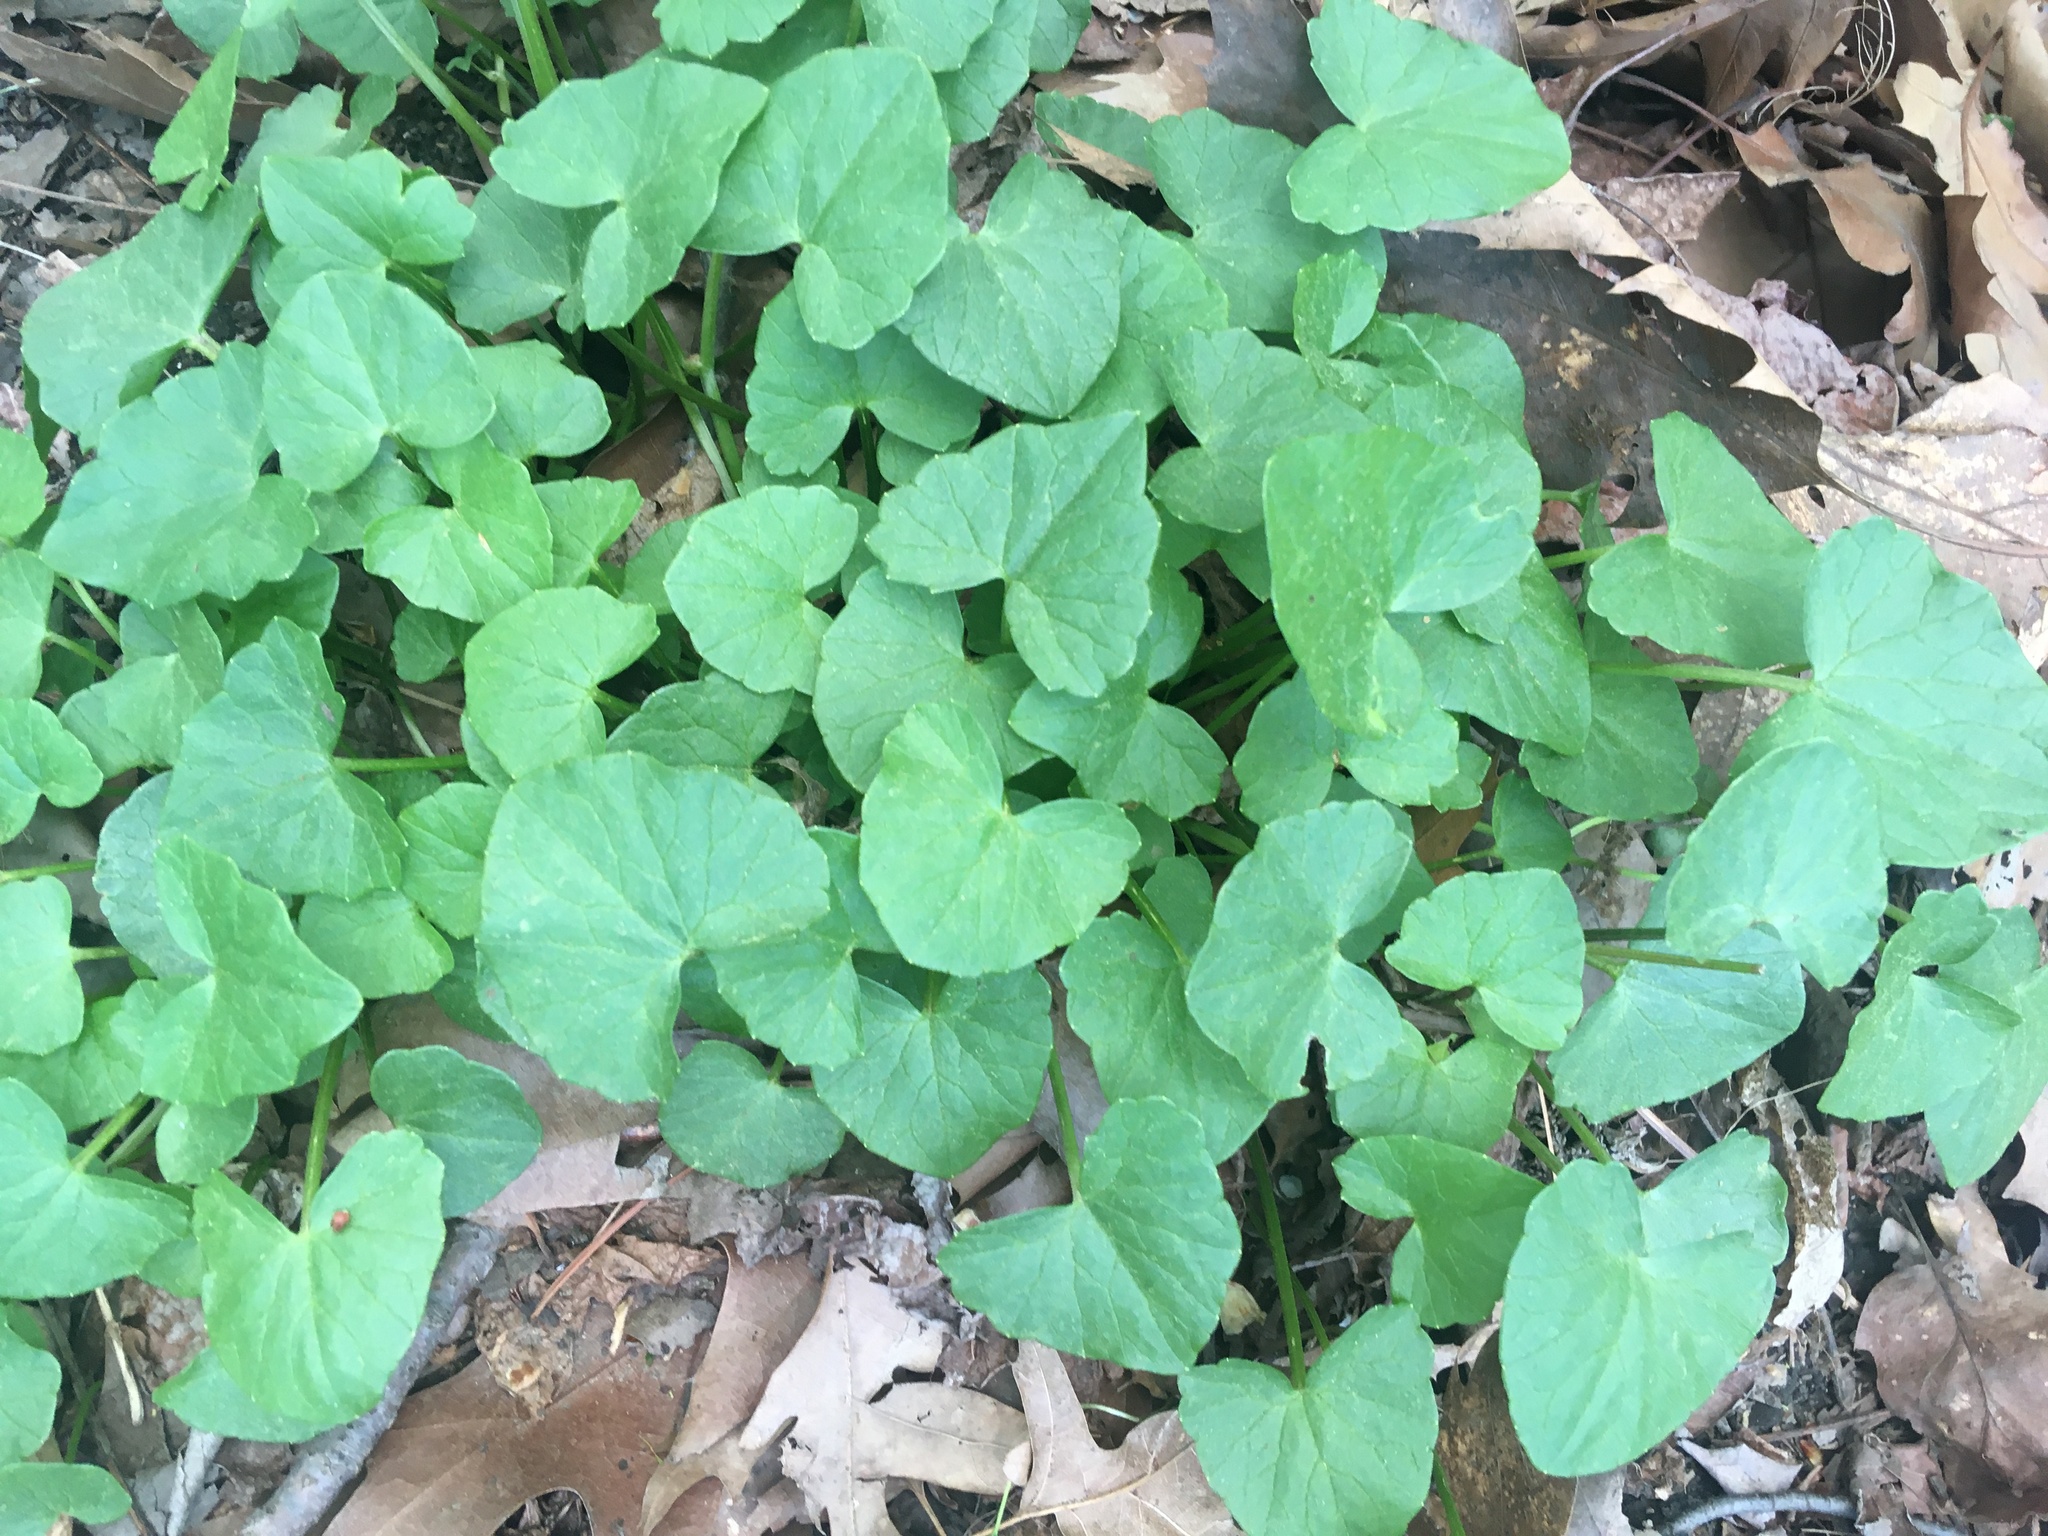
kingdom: Plantae
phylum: Tracheophyta
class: Magnoliopsida
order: Ranunculales
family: Ranunculaceae
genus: Ficaria
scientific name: Ficaria verna
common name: Lesser celandine
